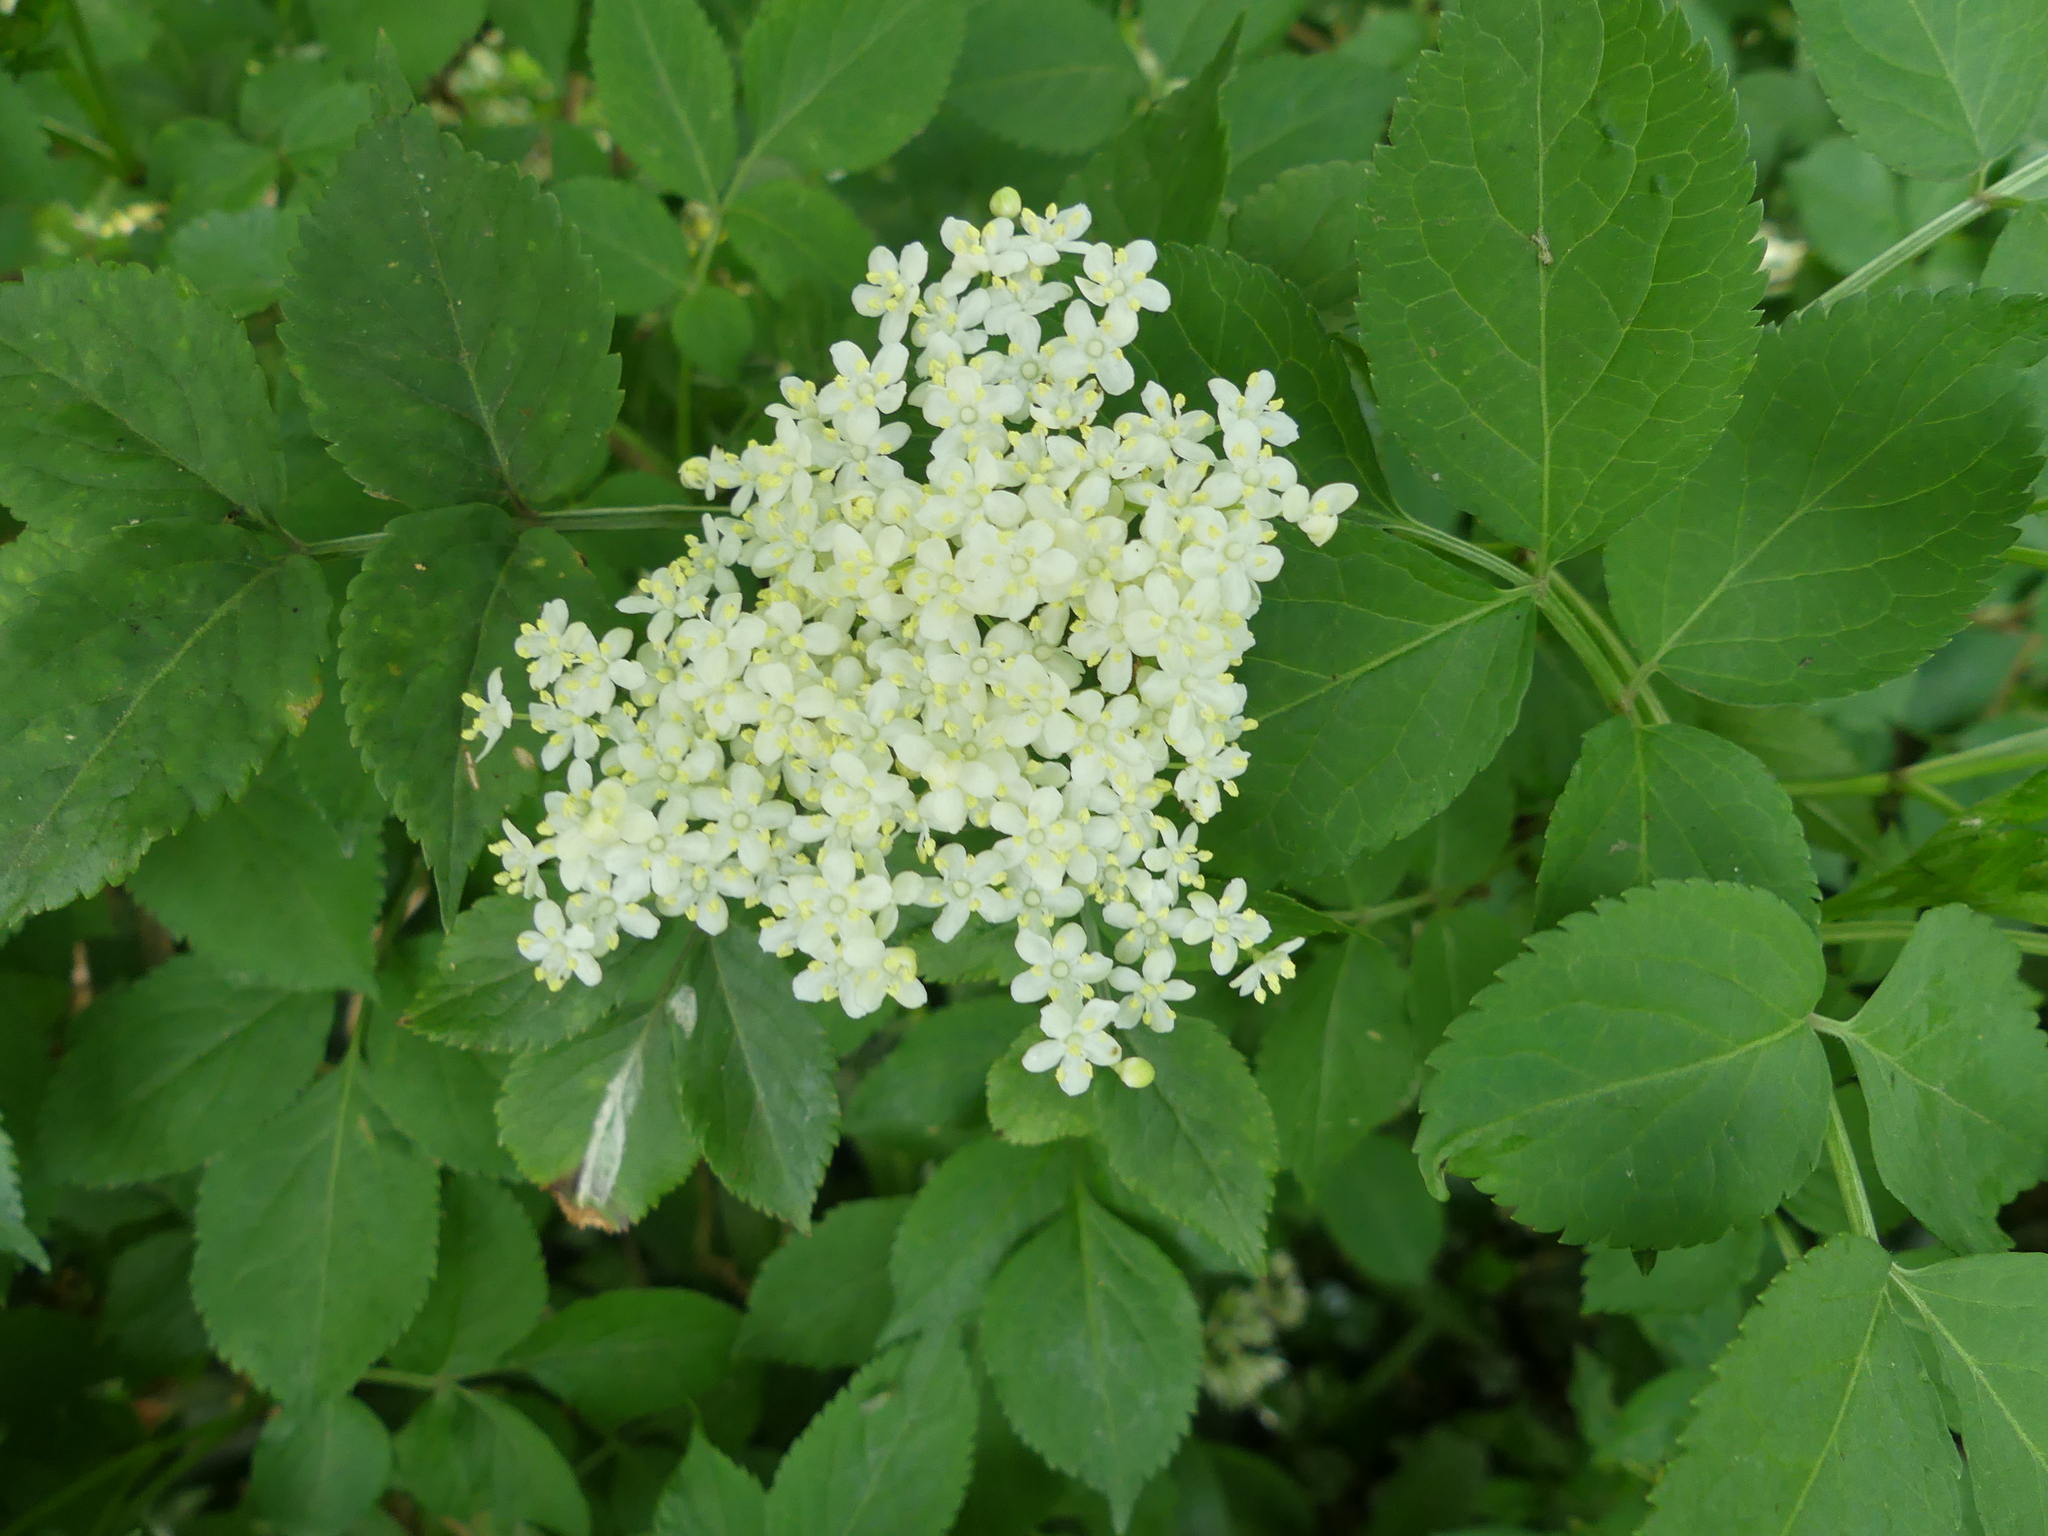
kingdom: Plantae
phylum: Tracheophyta
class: Magnoliopsida
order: Dipsacales
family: Viburnaceae
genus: Sambucus
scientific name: Sambucus nigra
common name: Elder
